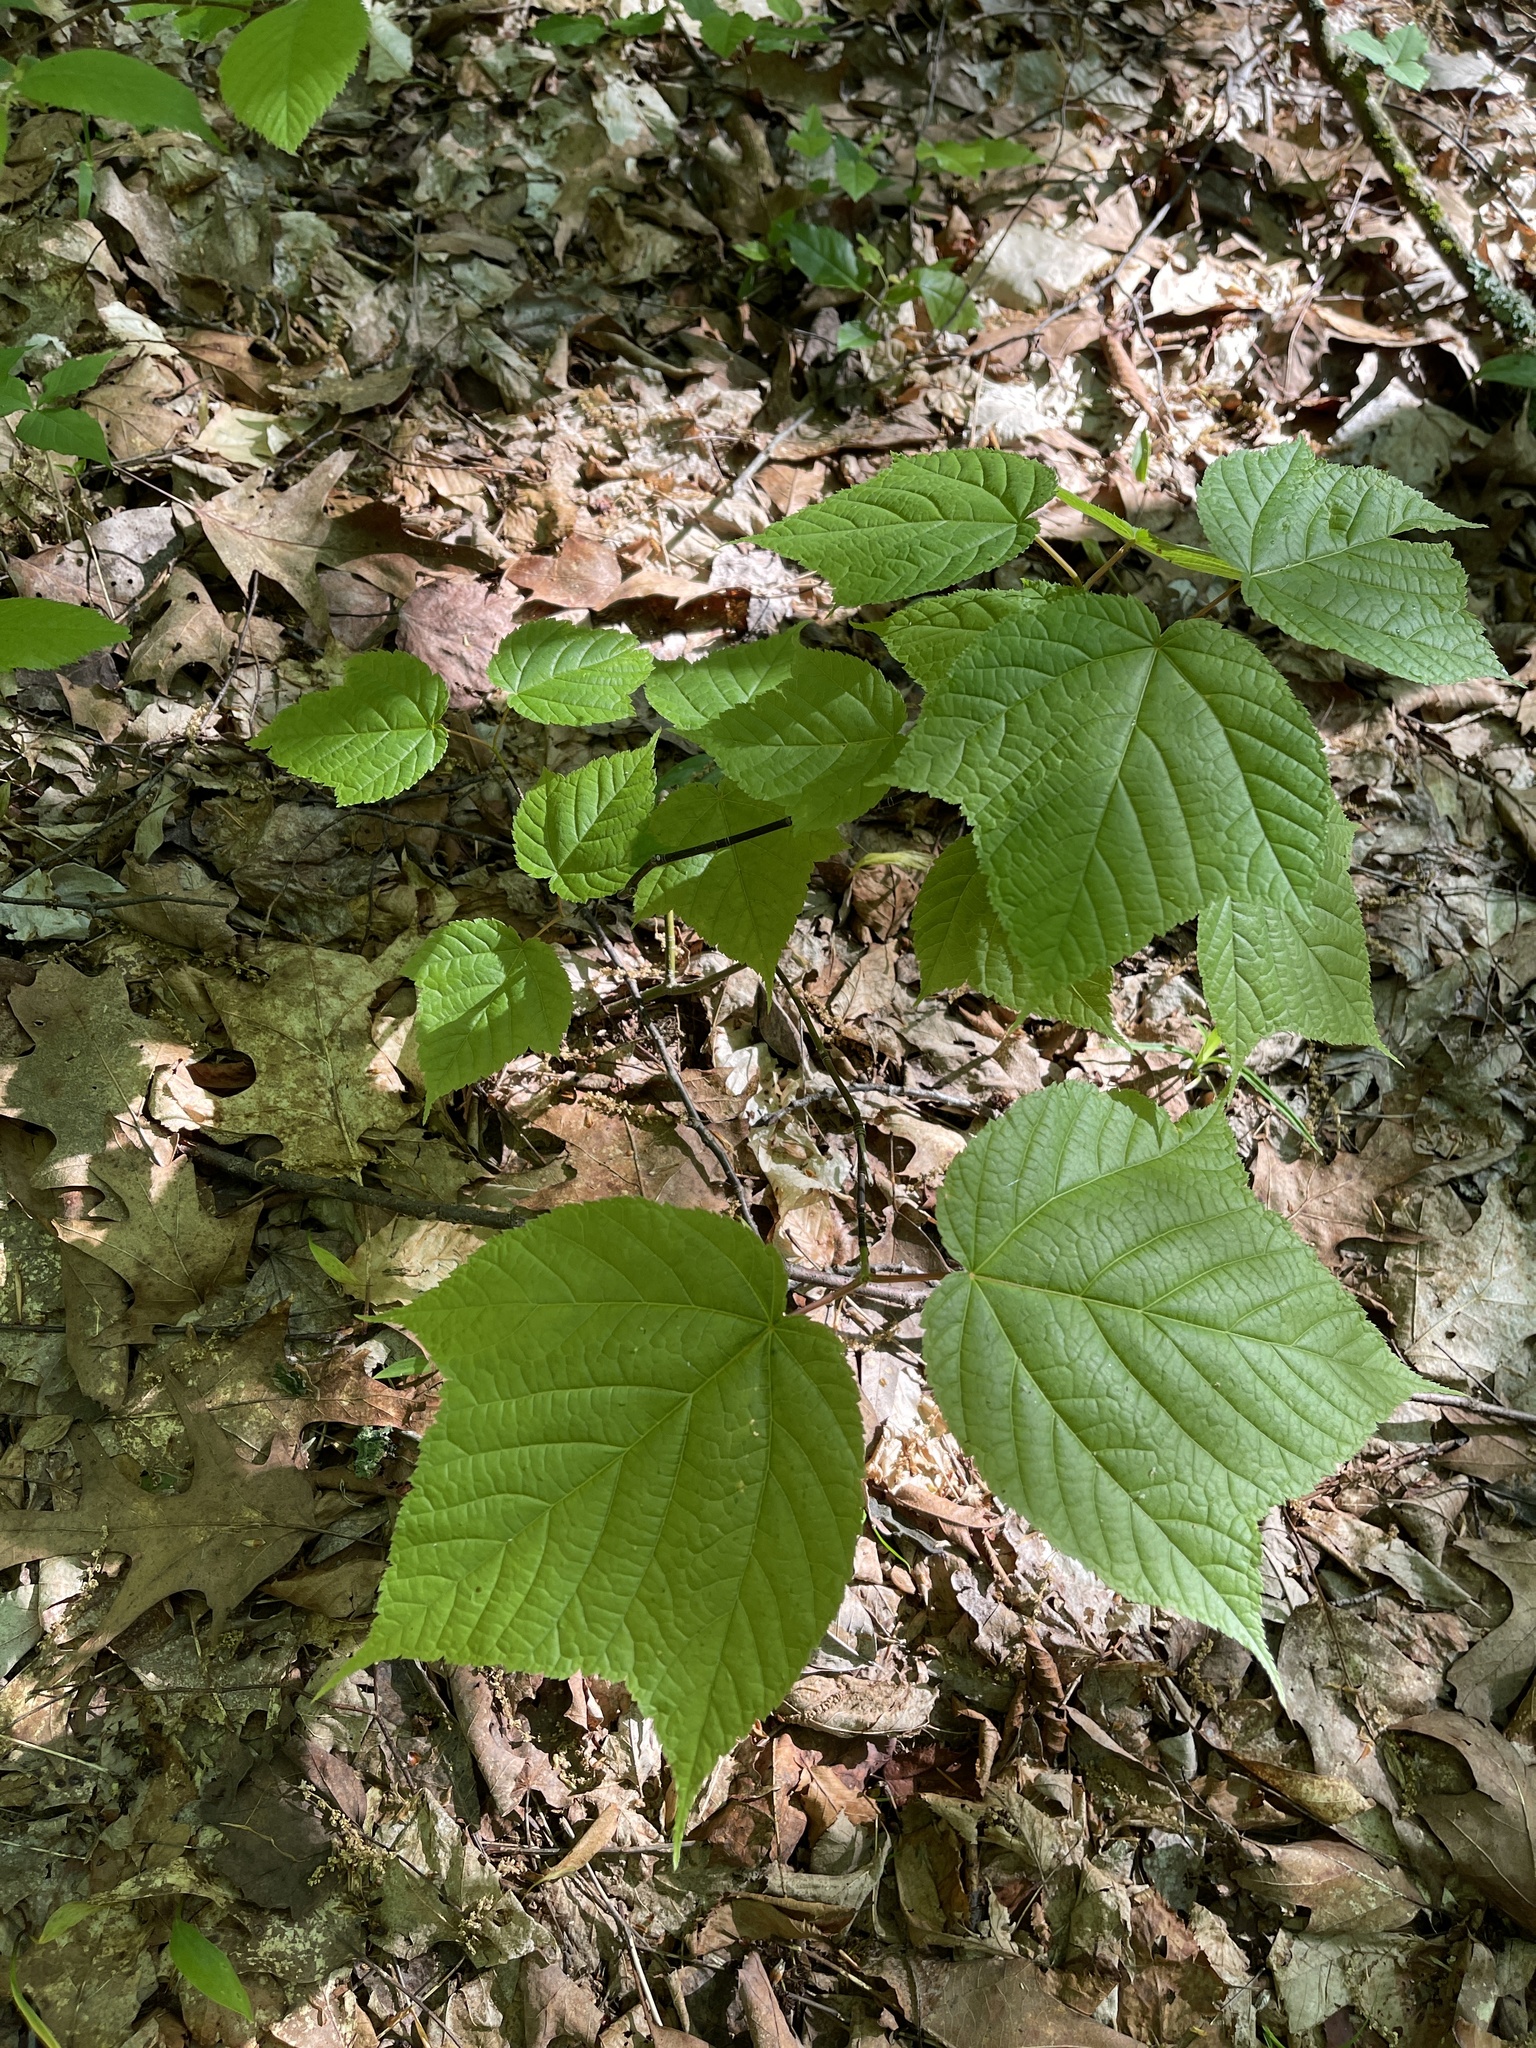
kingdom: Plantae
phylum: Tracheophyta
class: Magnoliopsida
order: Sapindales
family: Sapindaceae
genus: Acer
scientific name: Acer pensylvanicum
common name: Moosewood
